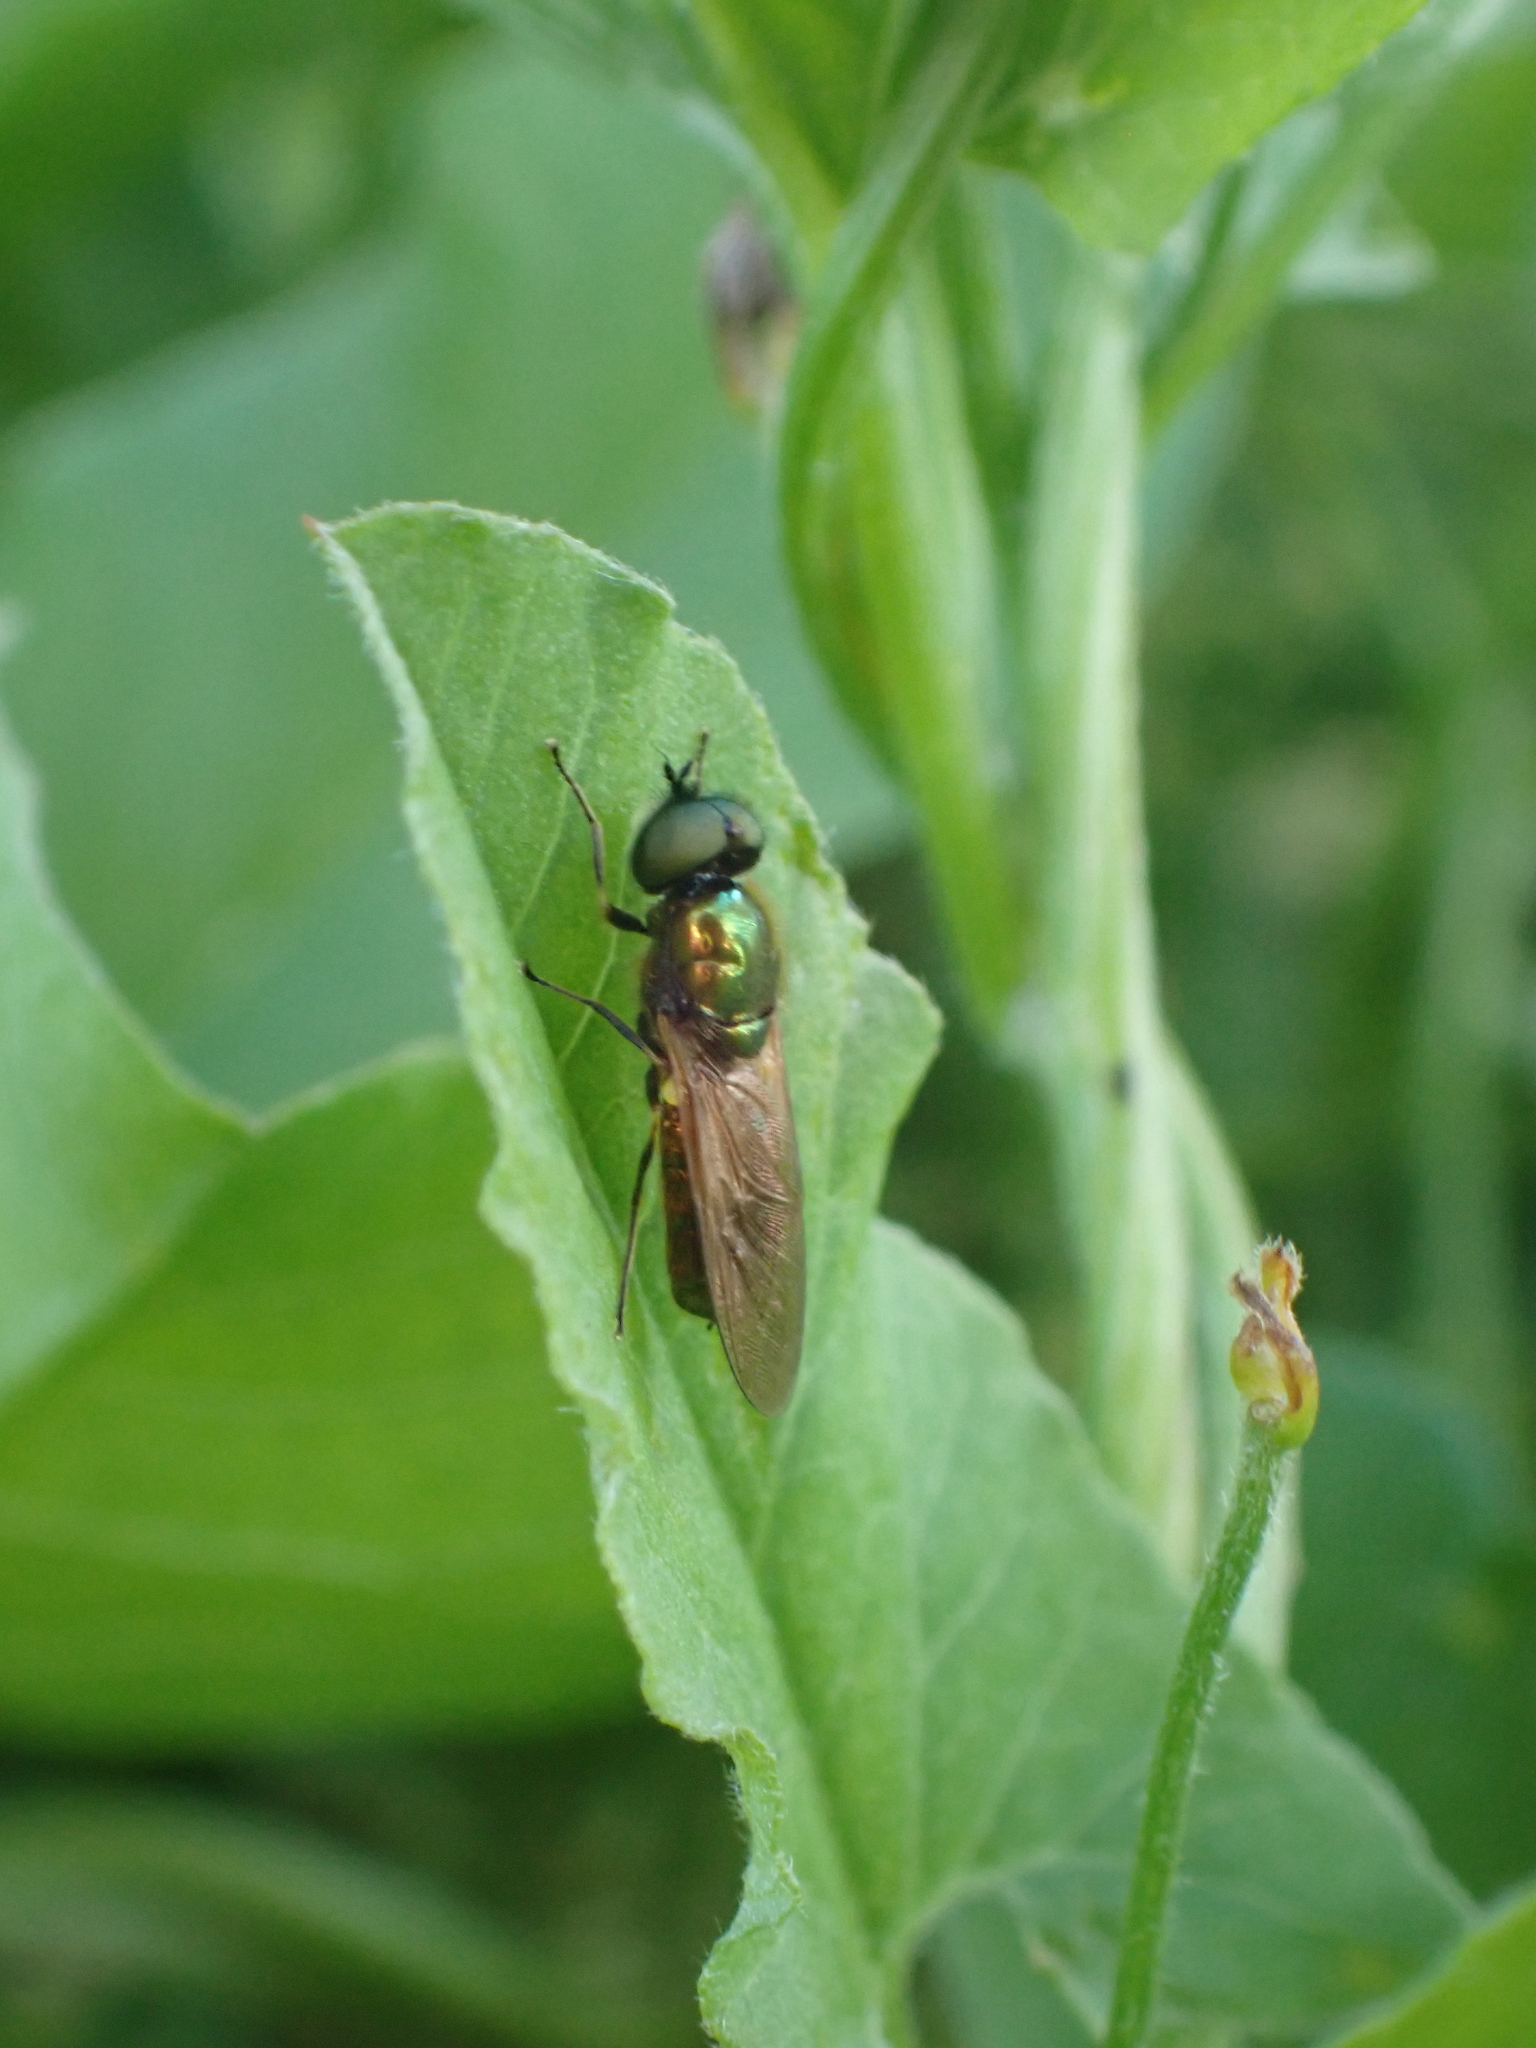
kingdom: Animalia
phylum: Arthropoda
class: Insecta
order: Diptera
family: Stratiomyidae
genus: Chloromyia
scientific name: Chloromyia formosa
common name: Soldier fly
